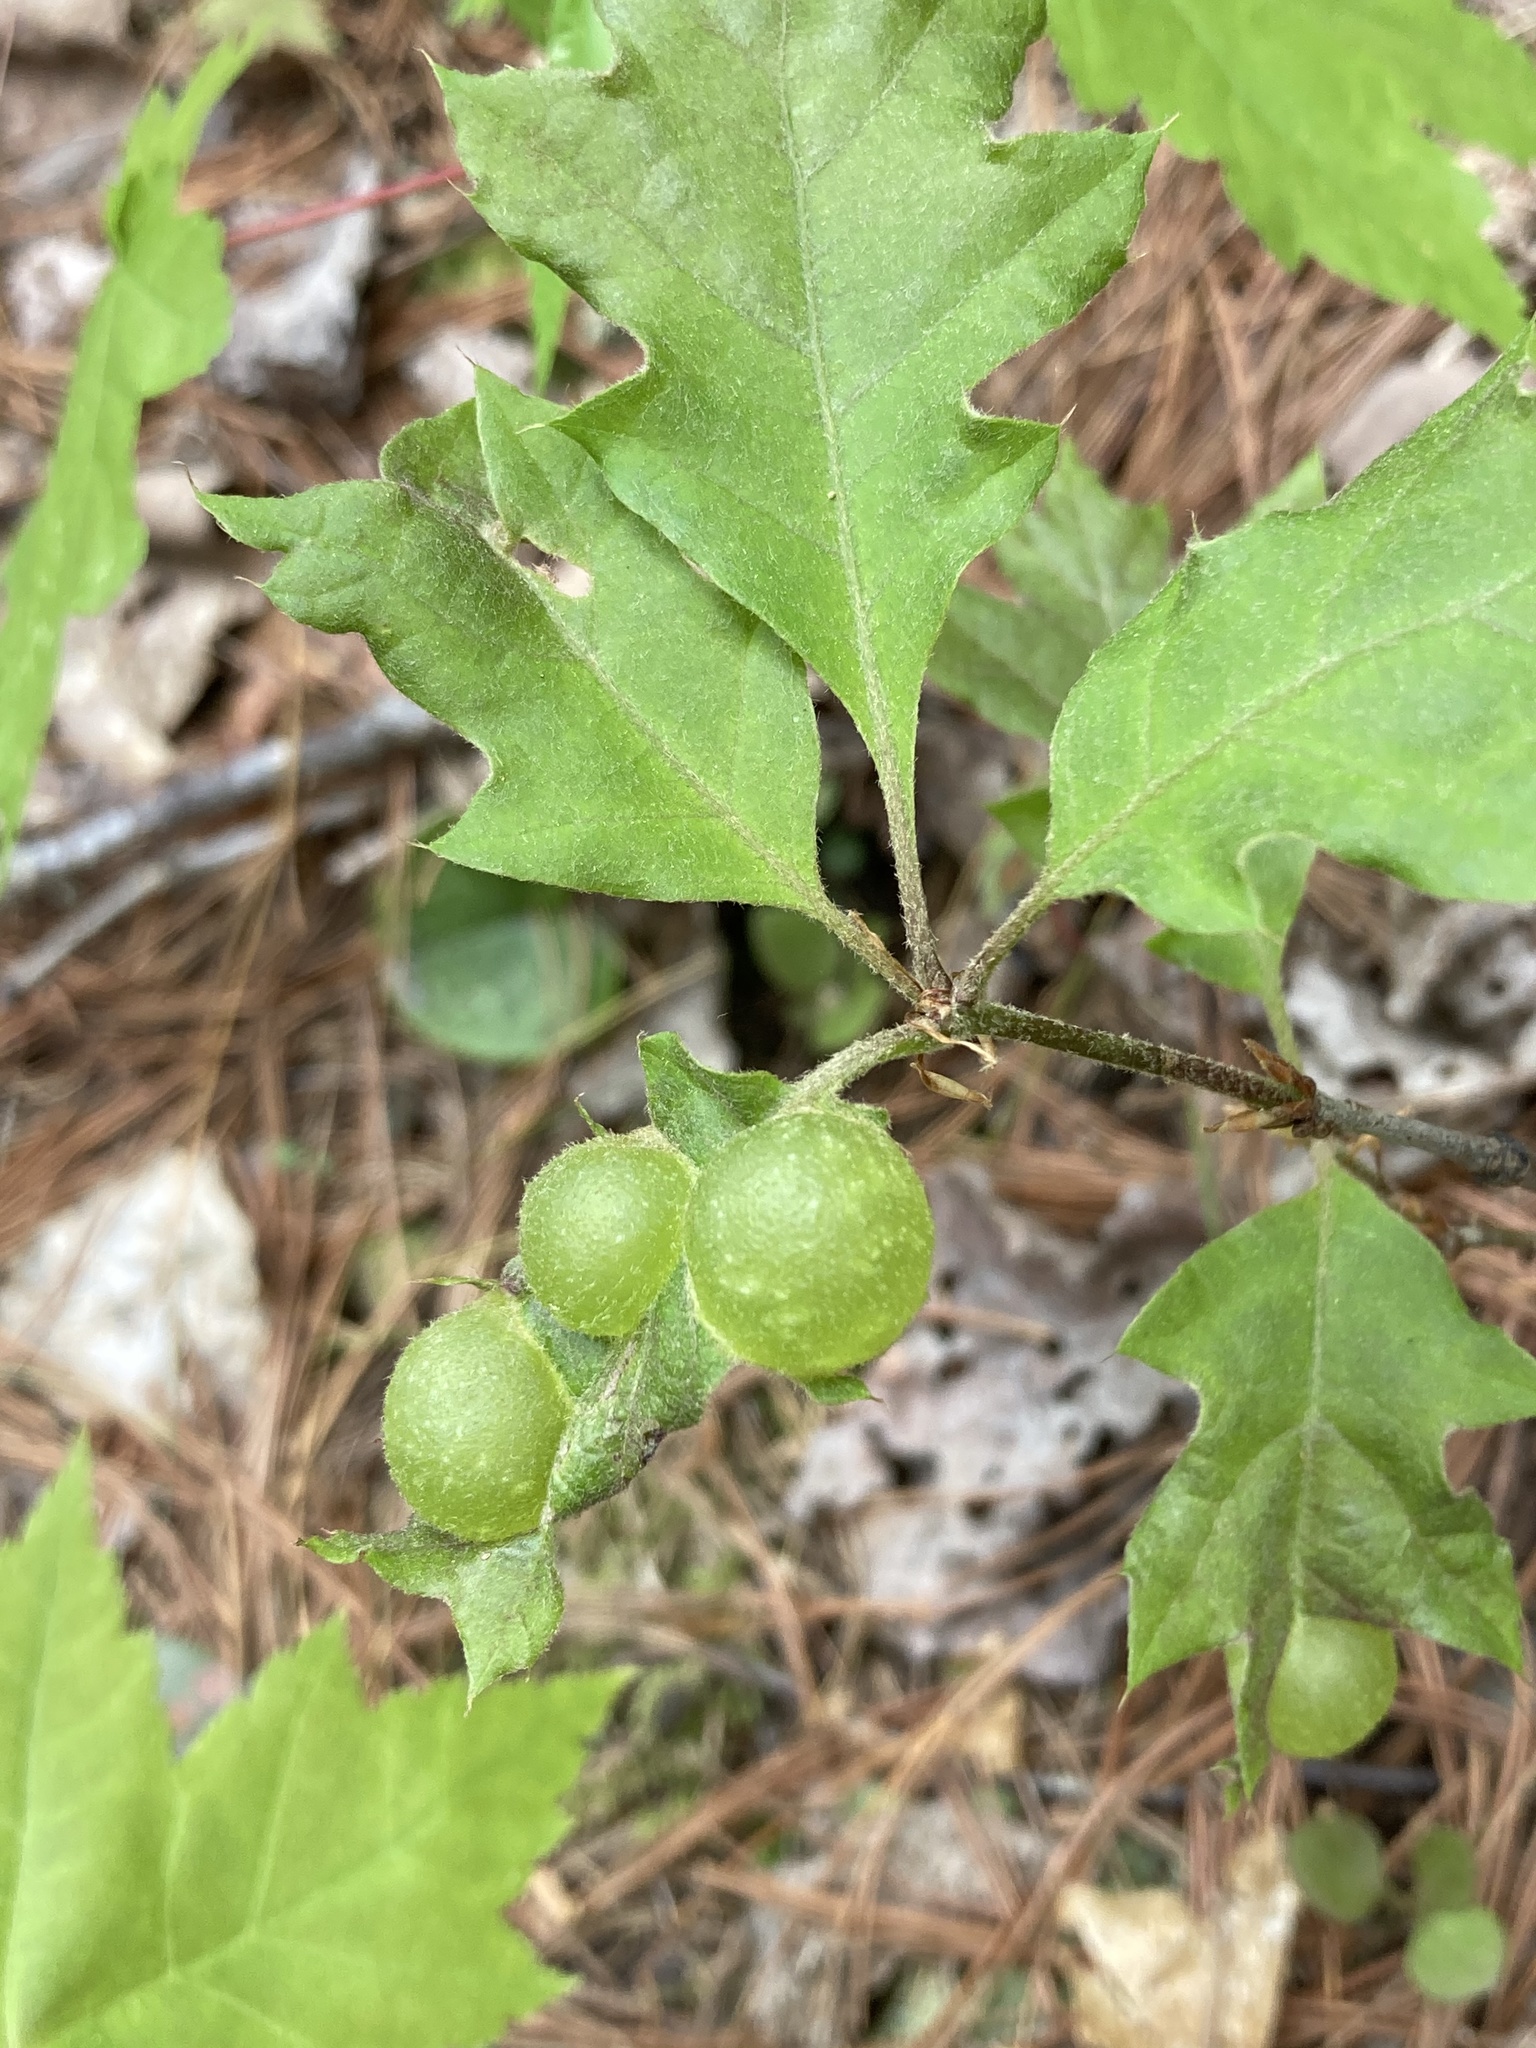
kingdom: Animalia
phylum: Arthropoda
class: Insecta
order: Hymenoptera
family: Cynipidae
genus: Dryocosmus
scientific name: Dryocosmus quercuspalustris
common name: Succulent oak gall wasp
